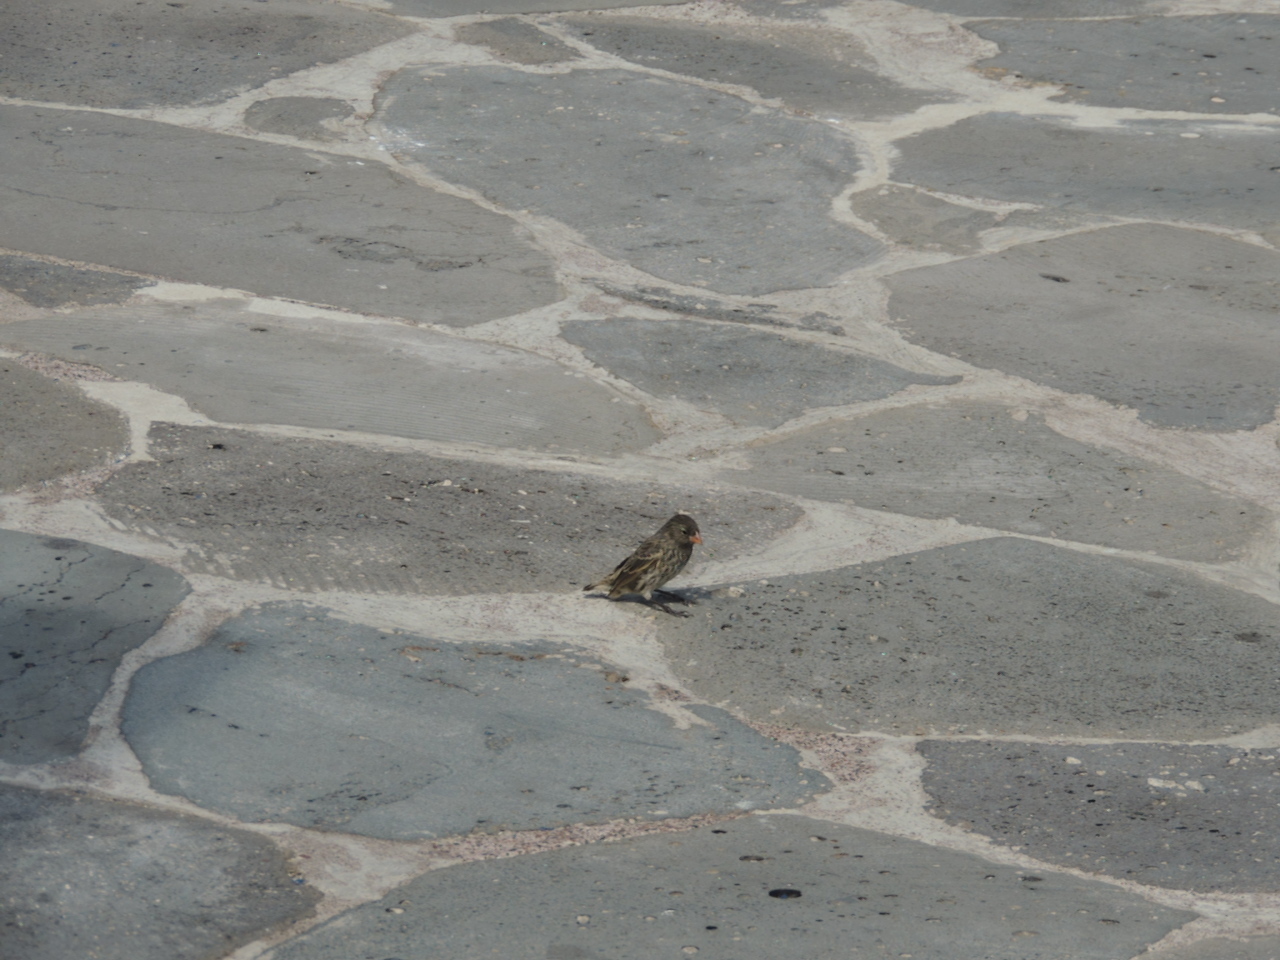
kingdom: Animalia
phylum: Chordata
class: Aves
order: Passeriformes
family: Thraupidae
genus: Geospiza
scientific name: Geospiza fuliginosa
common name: Small ground finch
